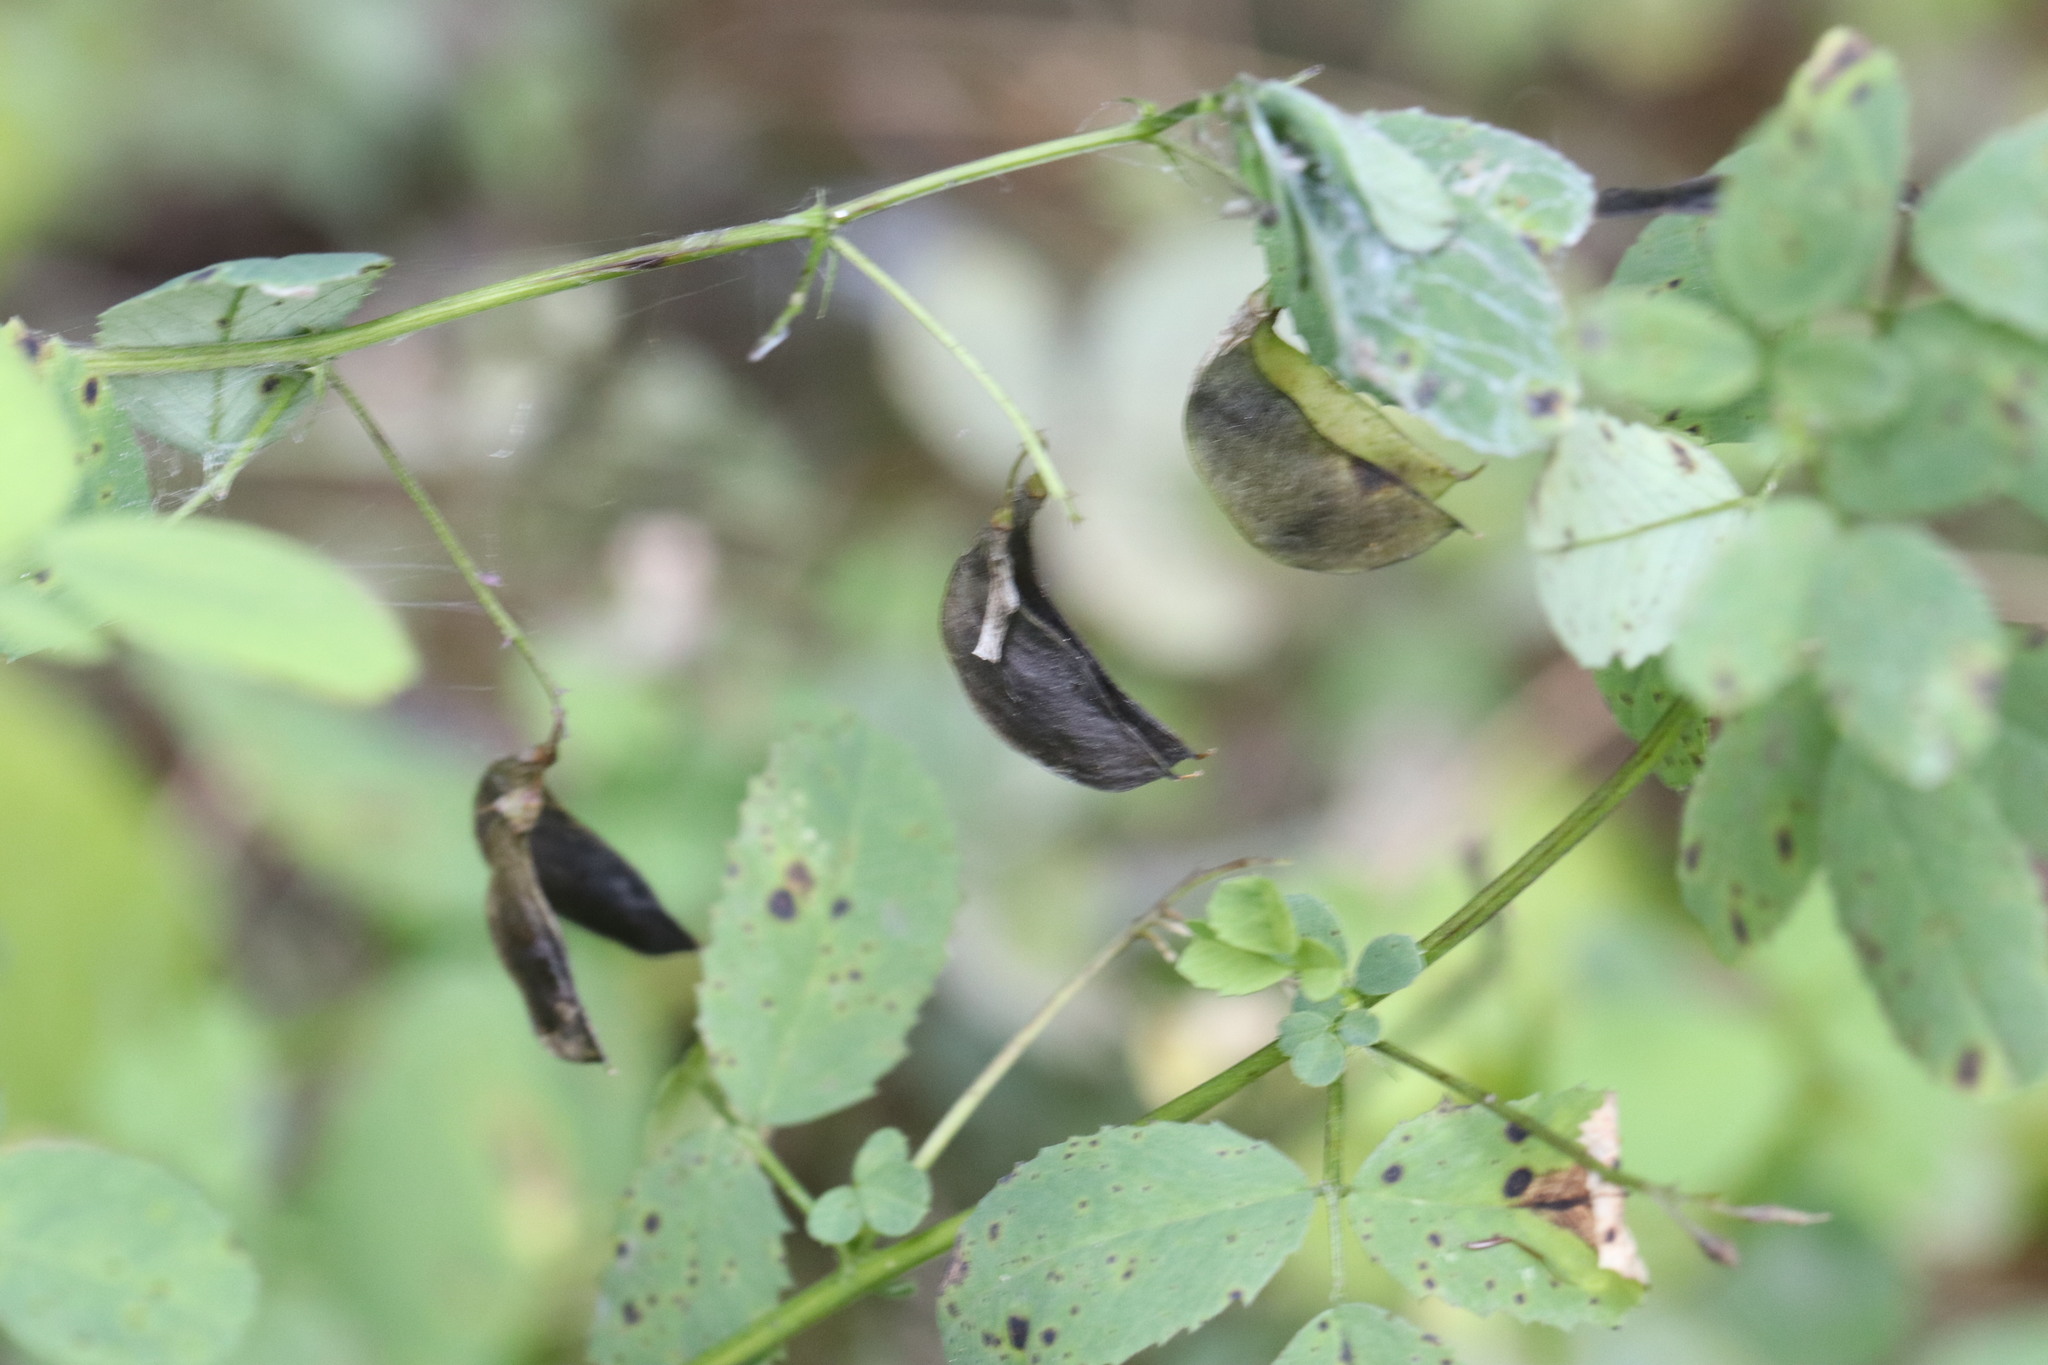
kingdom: Plantae
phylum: Tracheophyta
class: Magnoliopsida
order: Fabales
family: Fabaceae
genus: Medicago
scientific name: Medicago platycarpos
